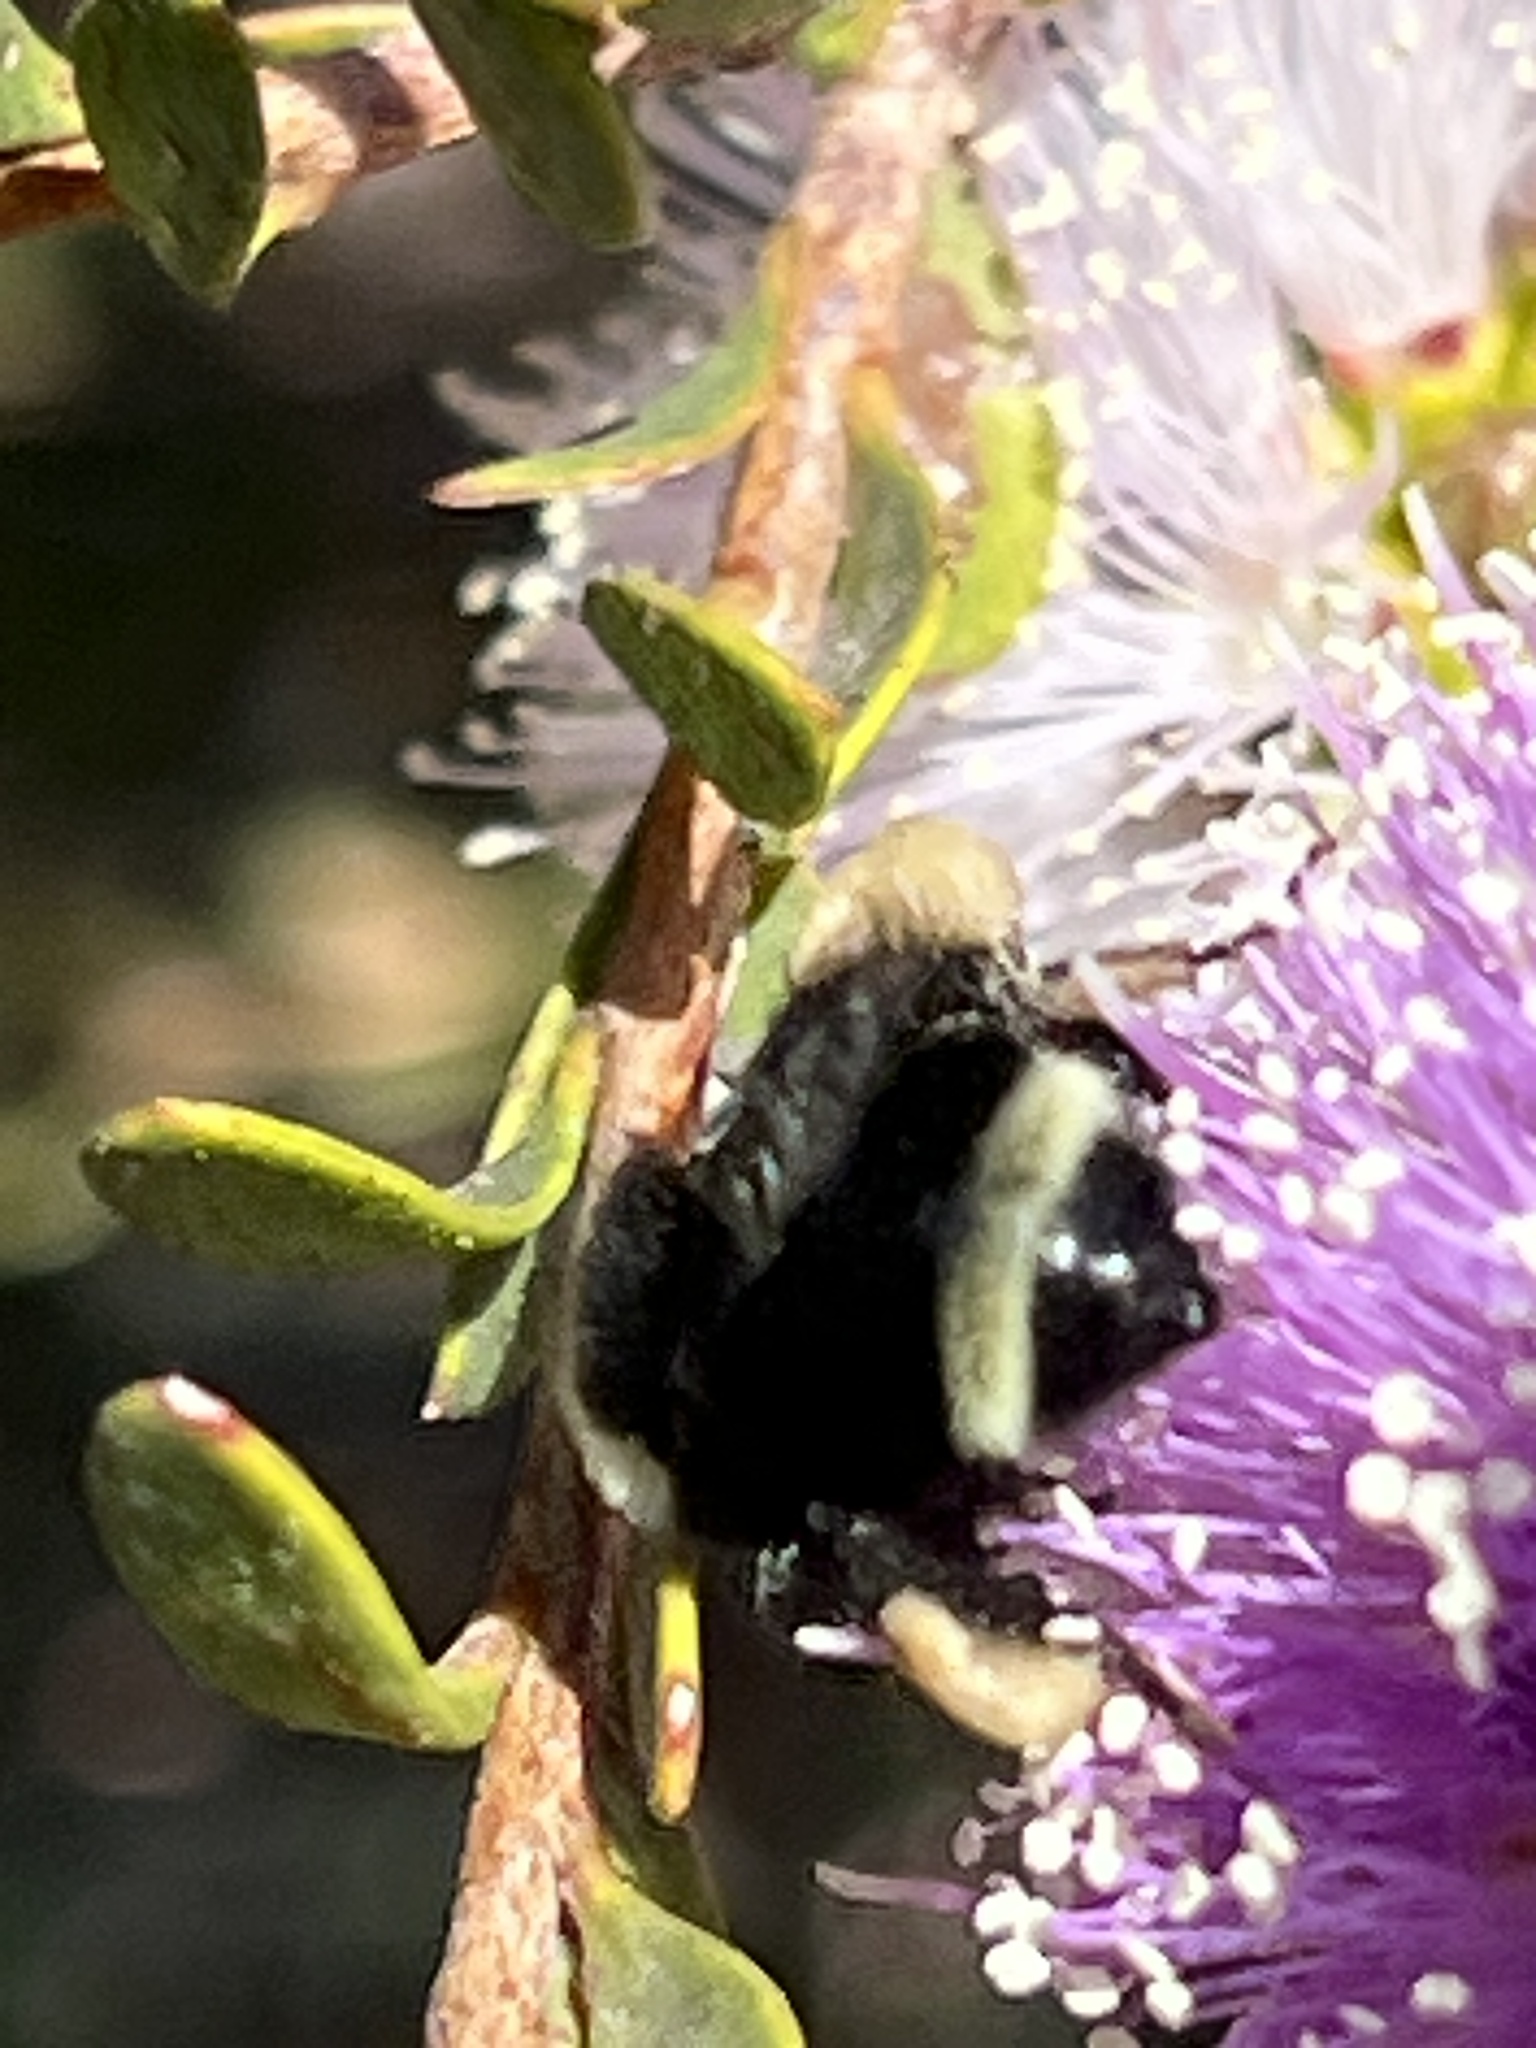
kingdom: Animalia
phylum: Arthropoda
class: Insecta
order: Hymenoptera
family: Apidae
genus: Bombus
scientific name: Bombus vosnesenskii
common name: Vosnesensky bumble bee
